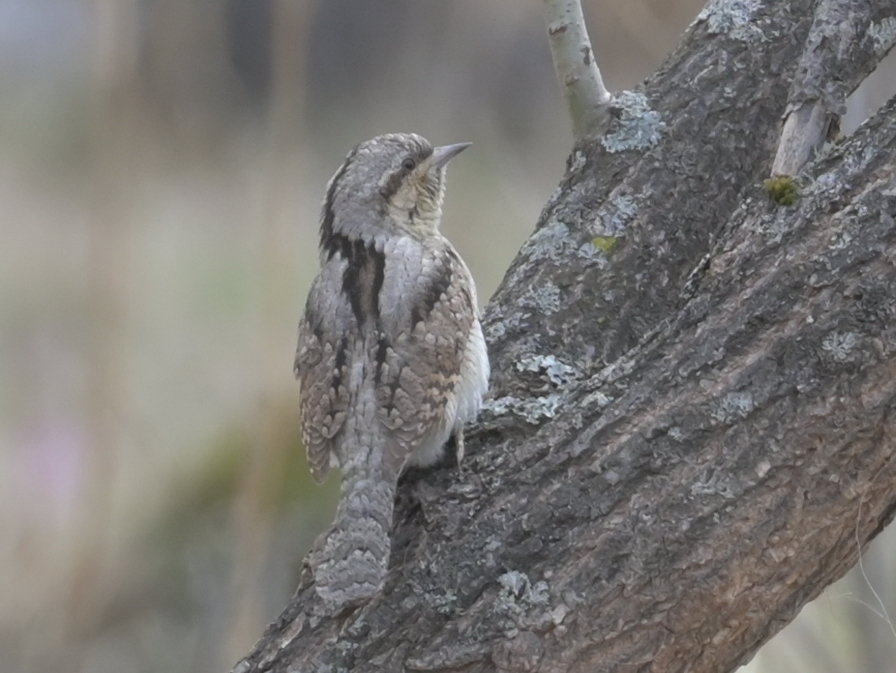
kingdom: Animalia
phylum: Chordata
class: Aves
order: Piciformes
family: Picidae
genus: Jynx
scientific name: Jynx torquilla
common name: Eurasian wryneck
